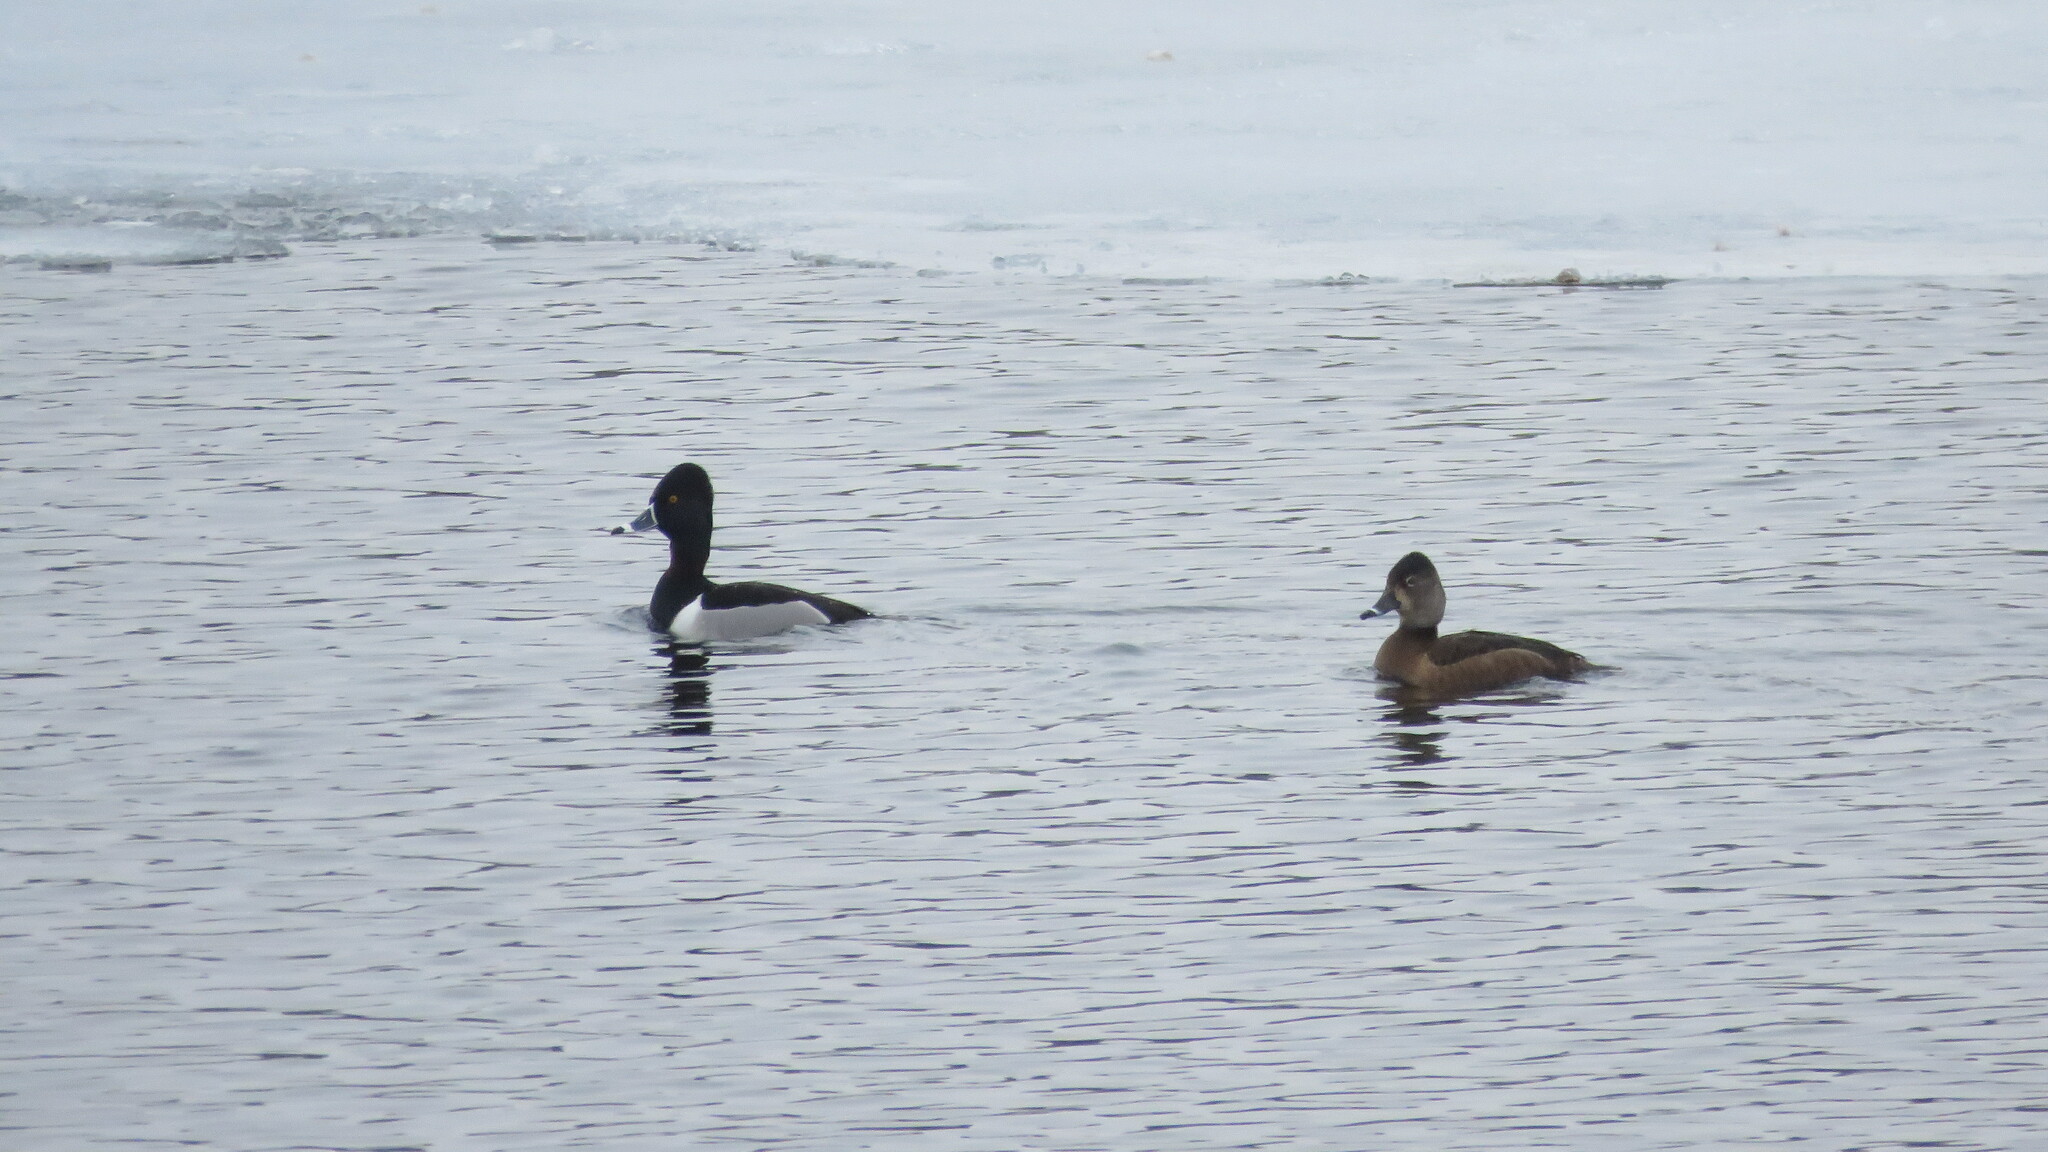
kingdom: Animalia
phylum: Chordata
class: Aves
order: Anseriformes
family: Anatidae
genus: Aythya
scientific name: Aythya collaris
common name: Ring-necked duck
